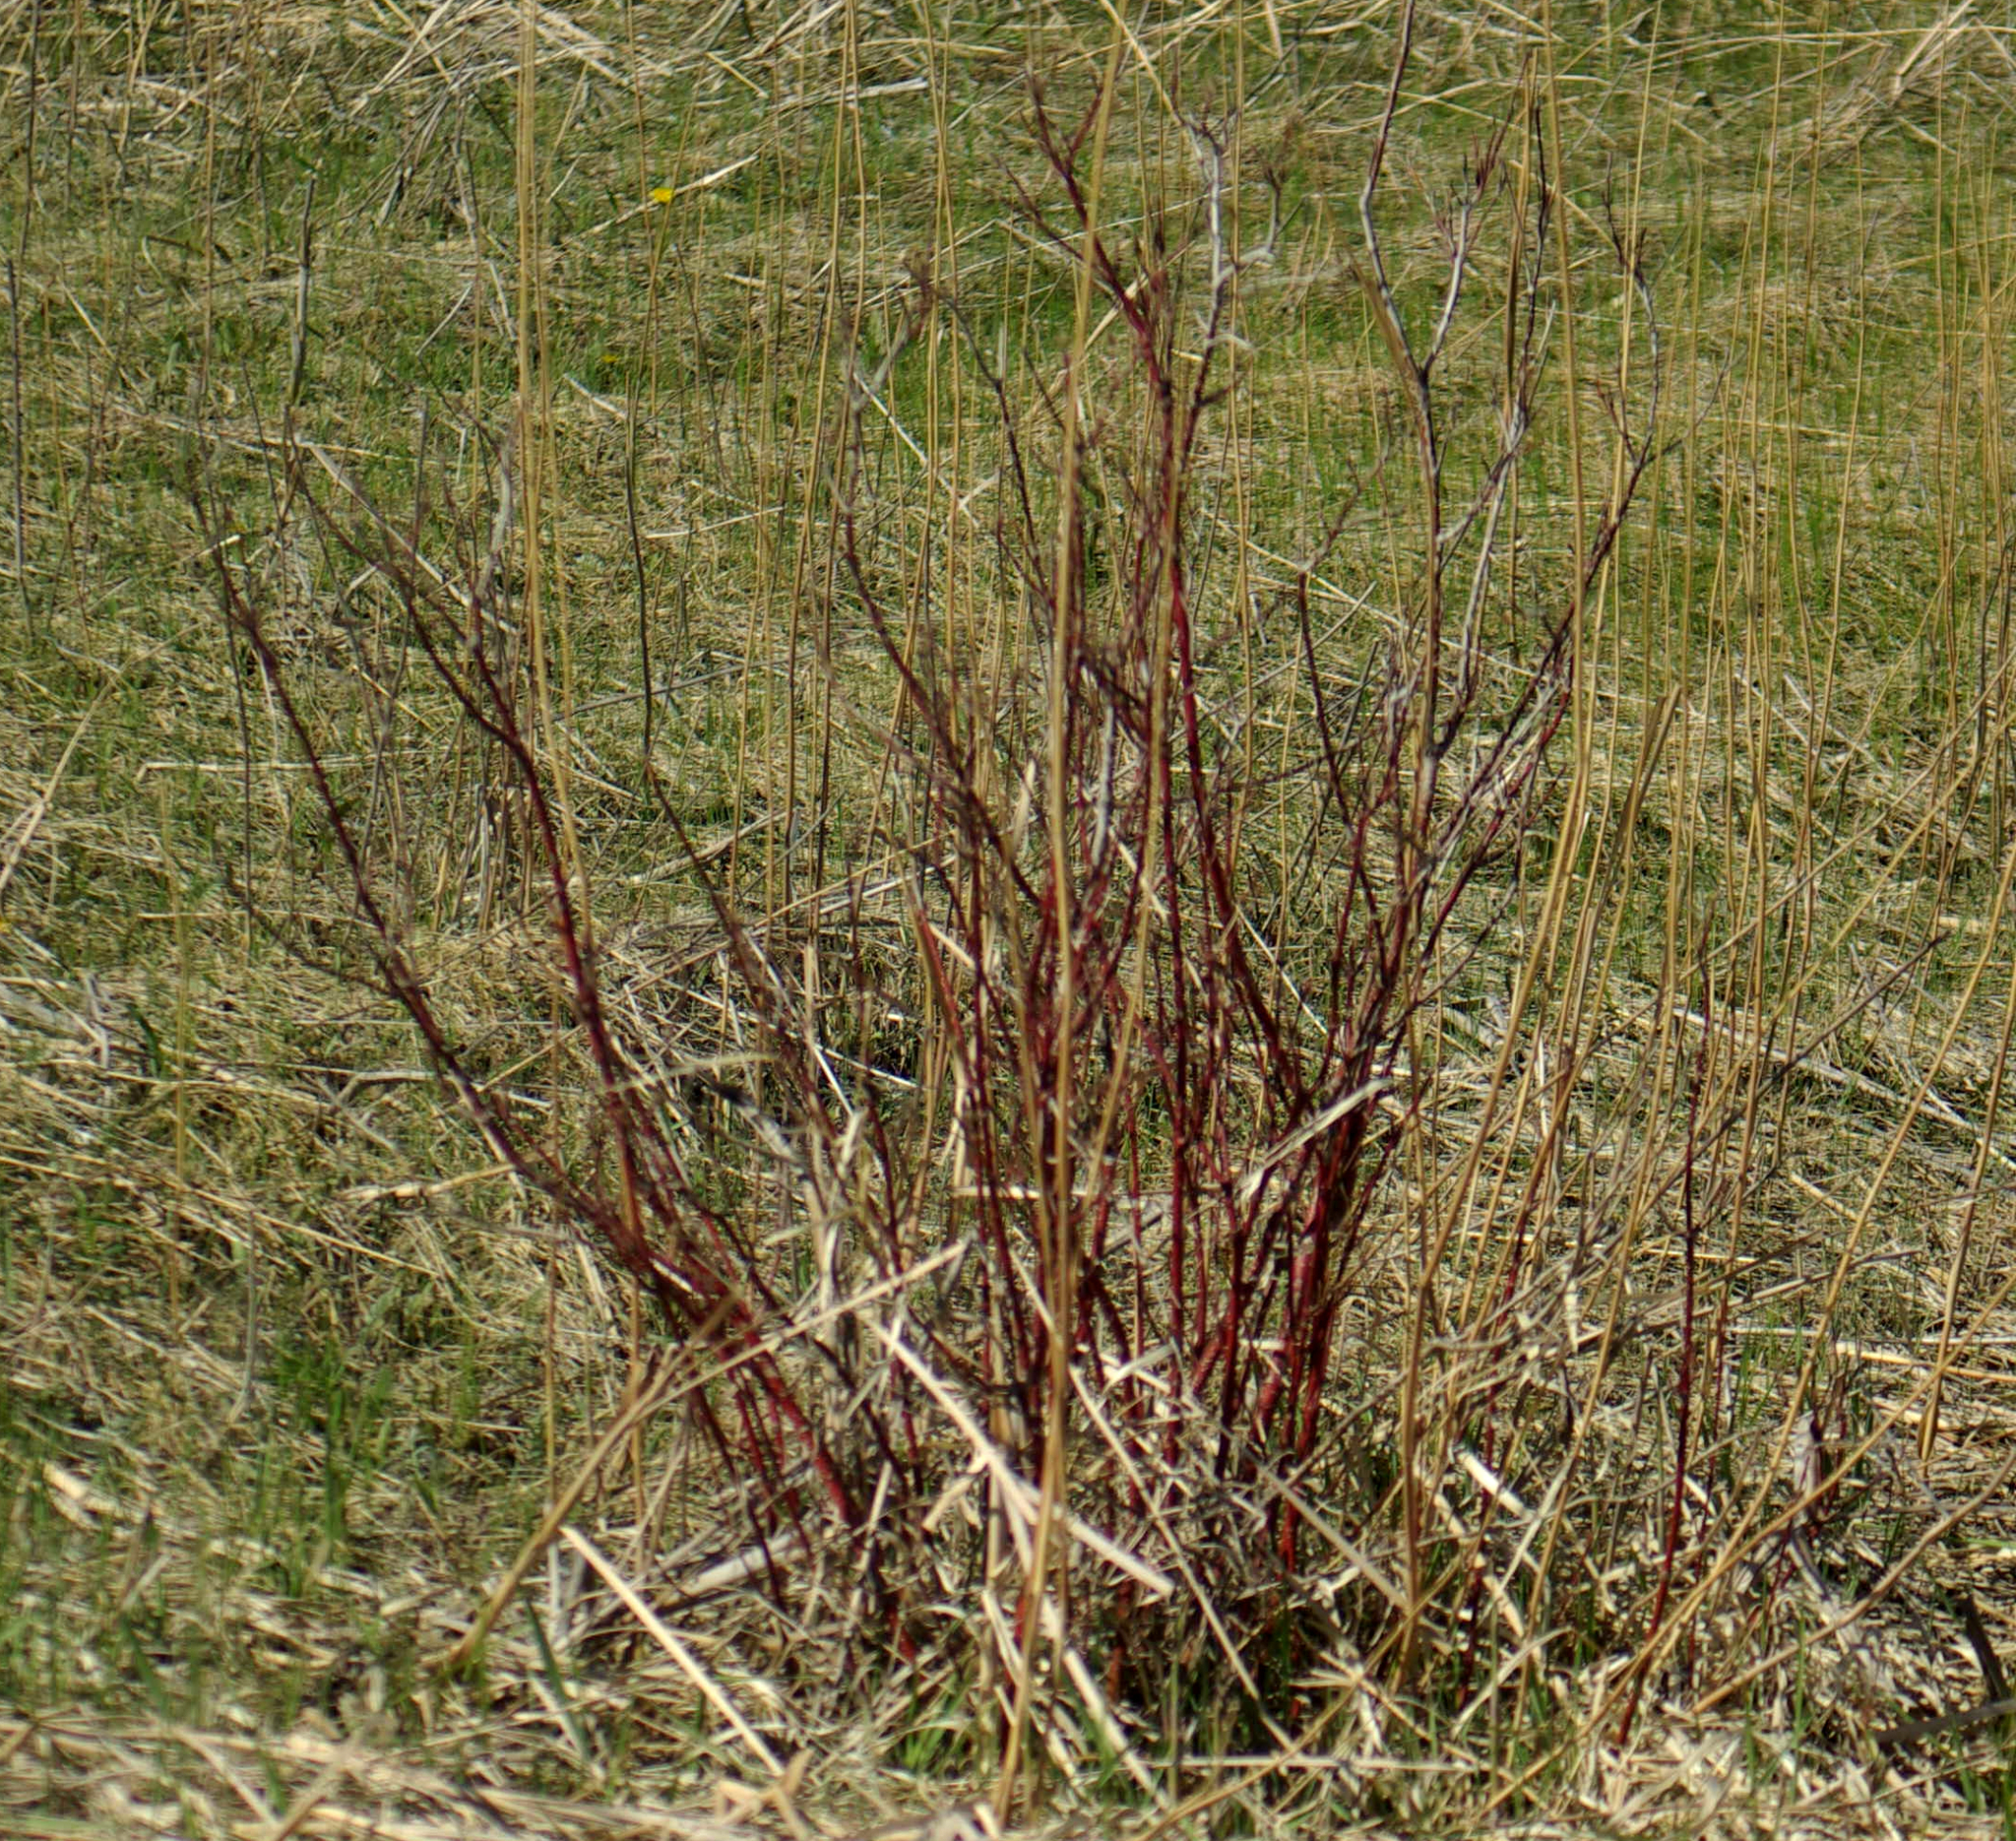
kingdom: Plantae
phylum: Tracheophyta
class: Magnoliopsida
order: Cornales
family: Cornaceae
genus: Cornus
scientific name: Cornus sericea
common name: Red-osier dogwood
